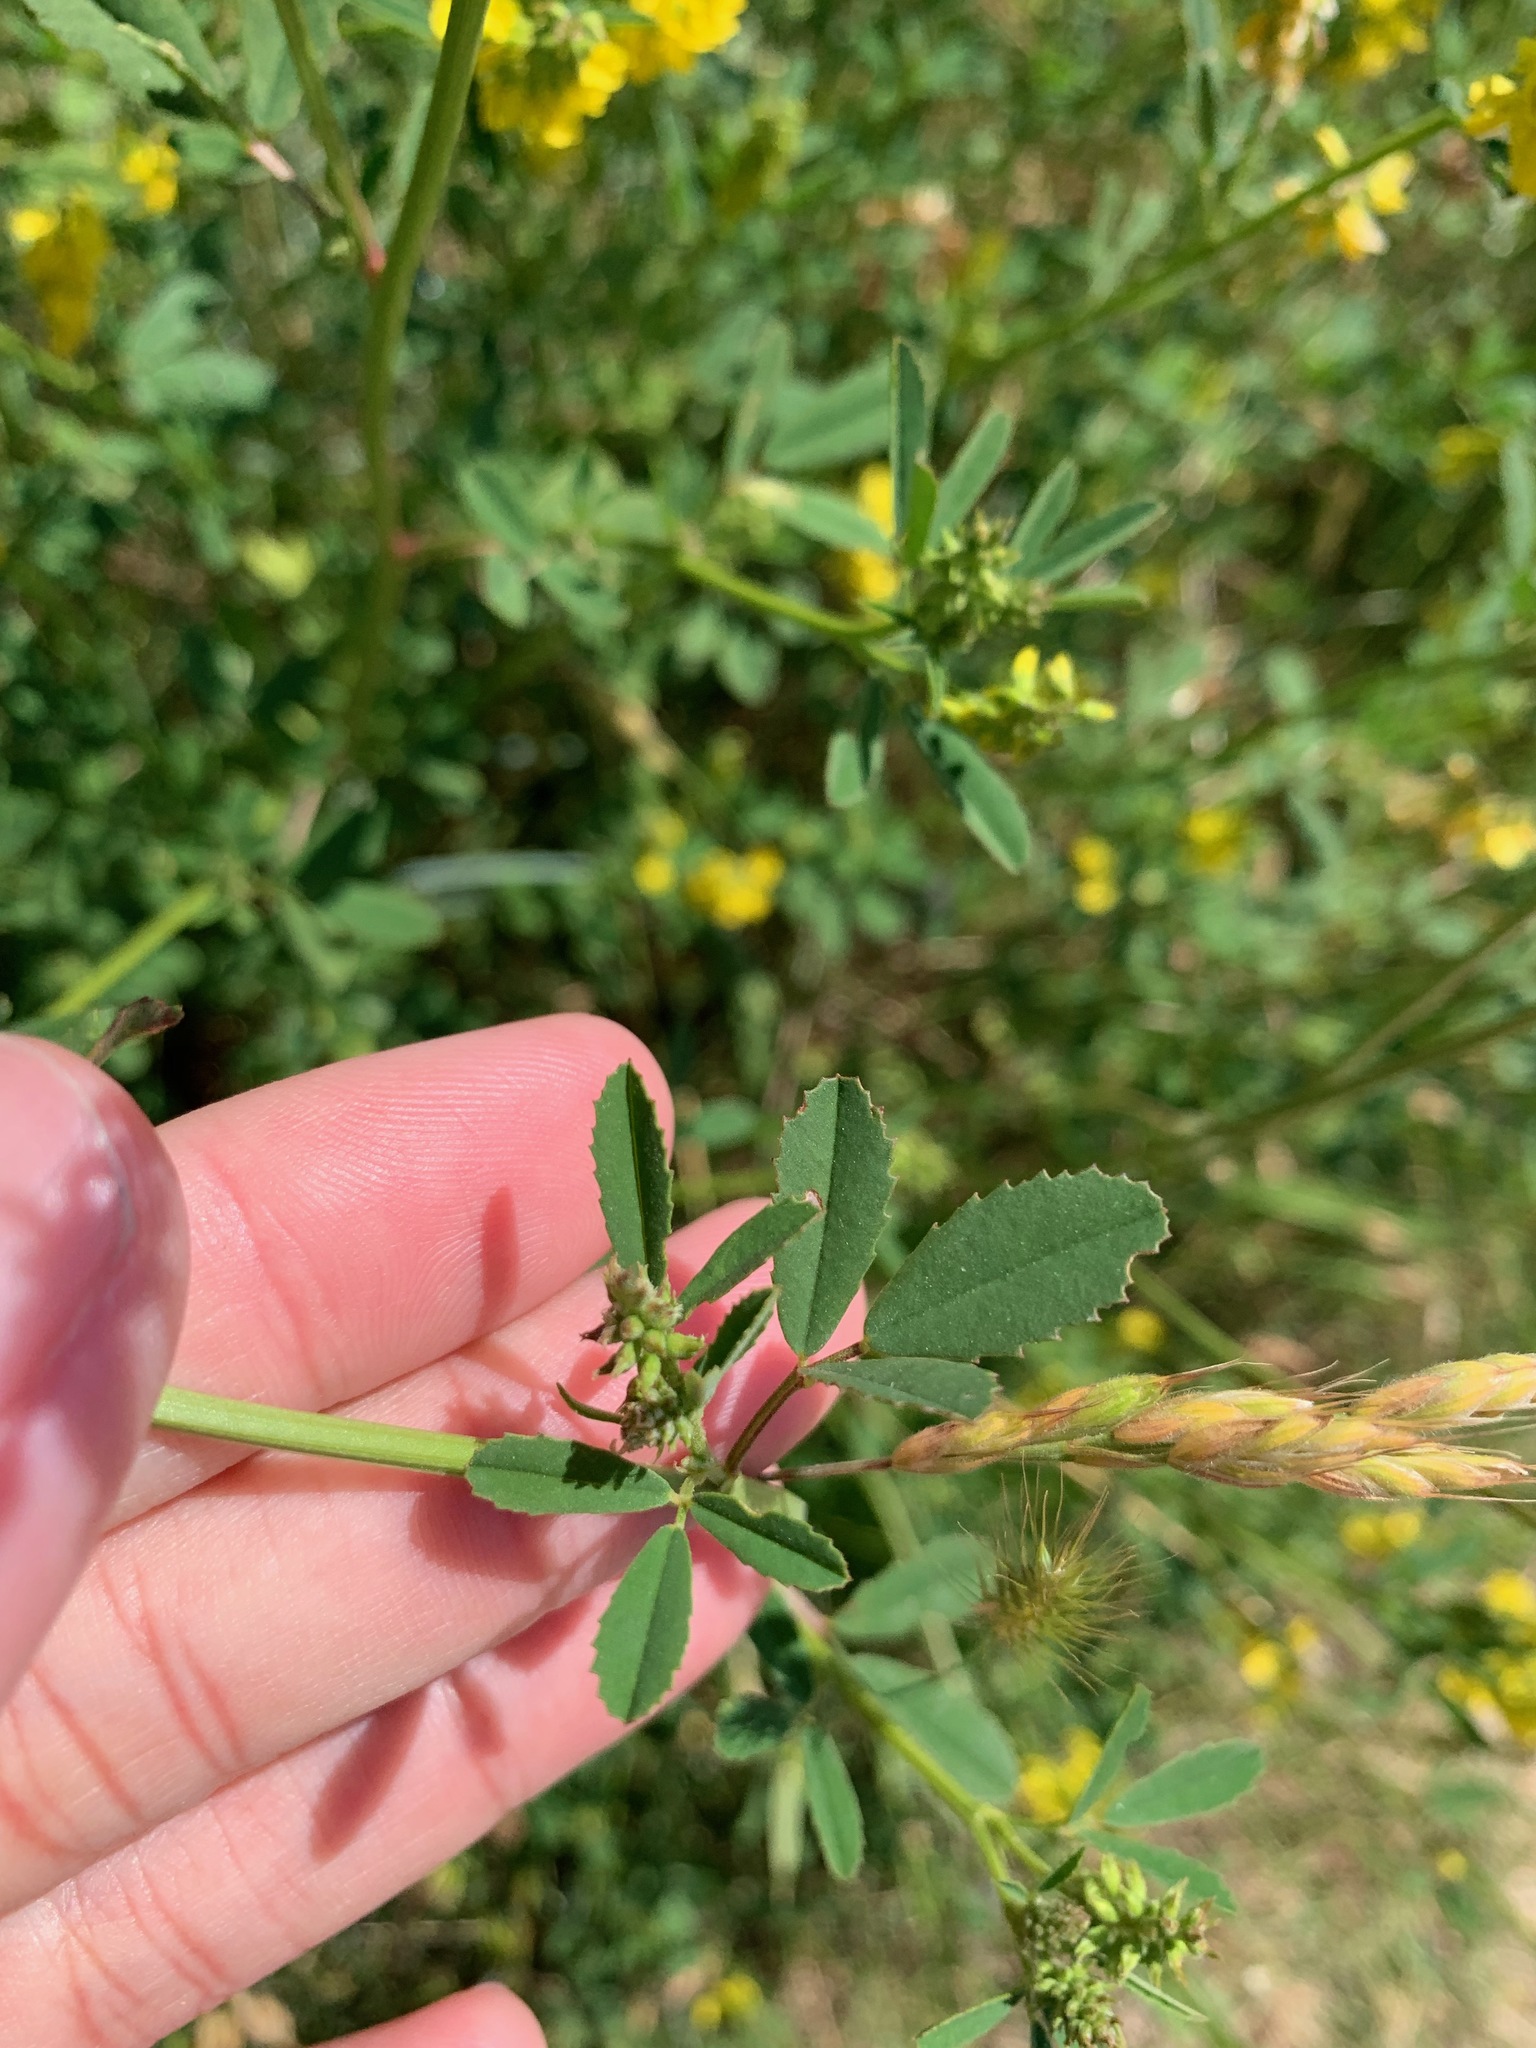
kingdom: Plantae
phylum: Tracheophyta
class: Magnoliopsida
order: Fabales
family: Fabaceae
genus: Melilotus
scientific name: Melilotus altissimus
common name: Tall melilot
